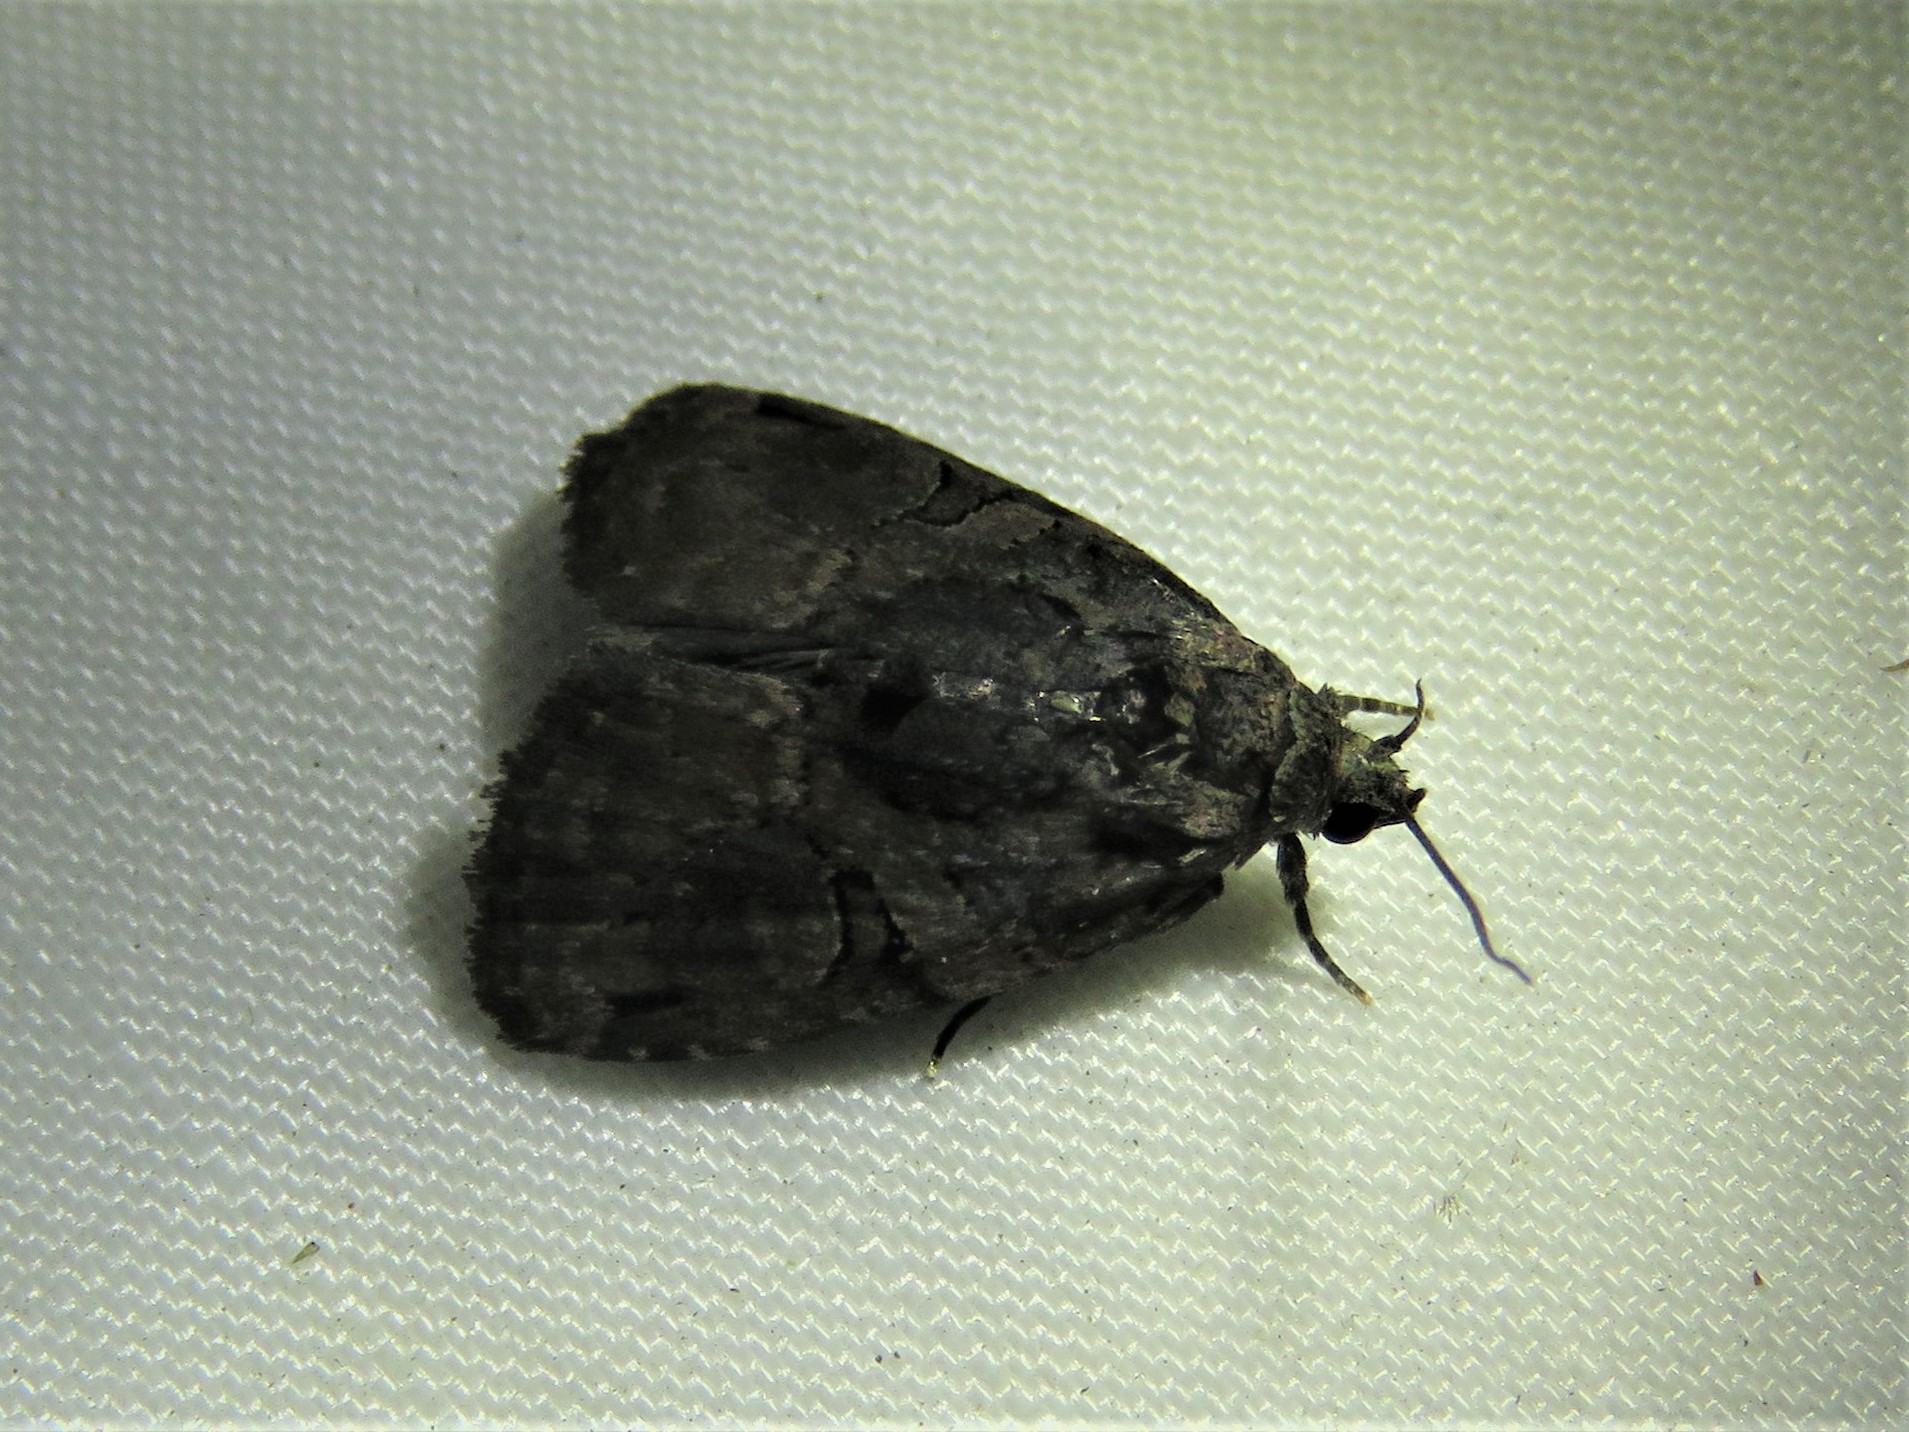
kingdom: Animalia
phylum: Arthropoda
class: Insecta
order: Lepidoptera
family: Noctuidae
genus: Pseudeustrotia
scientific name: Pseudeustrotia indeterminata
